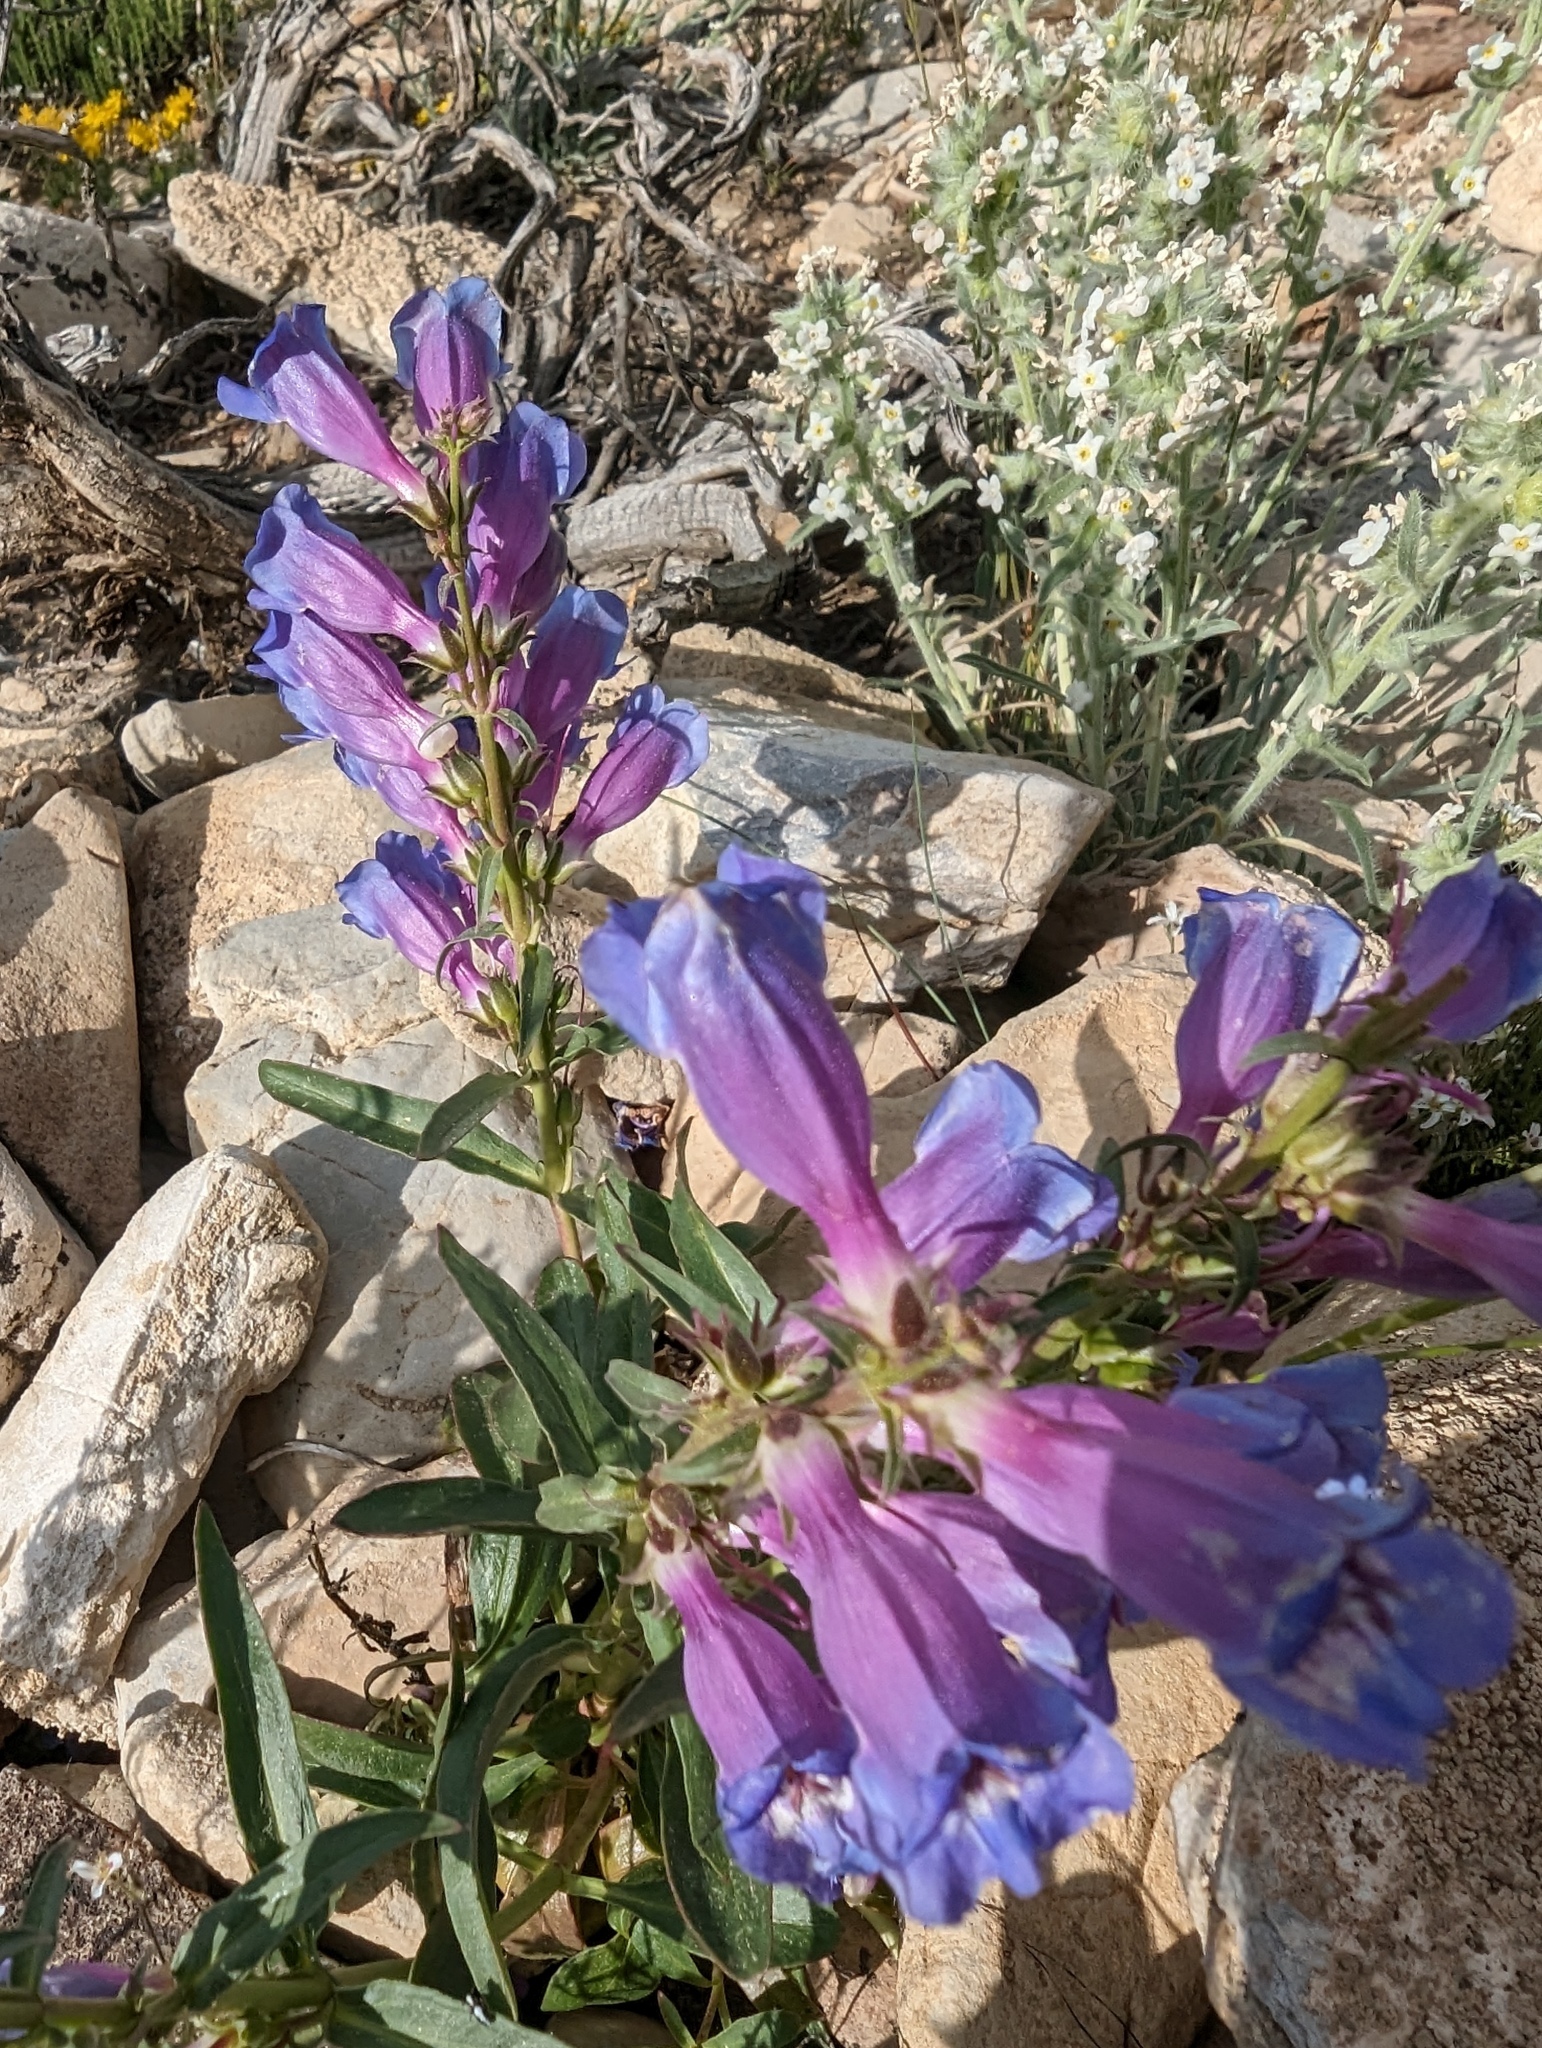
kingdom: Plantae
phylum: Tracheophyta
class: Magnoliopsida
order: Lamiales
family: Plantaginaceae
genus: Penstemon
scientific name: Penstemon speciosus
